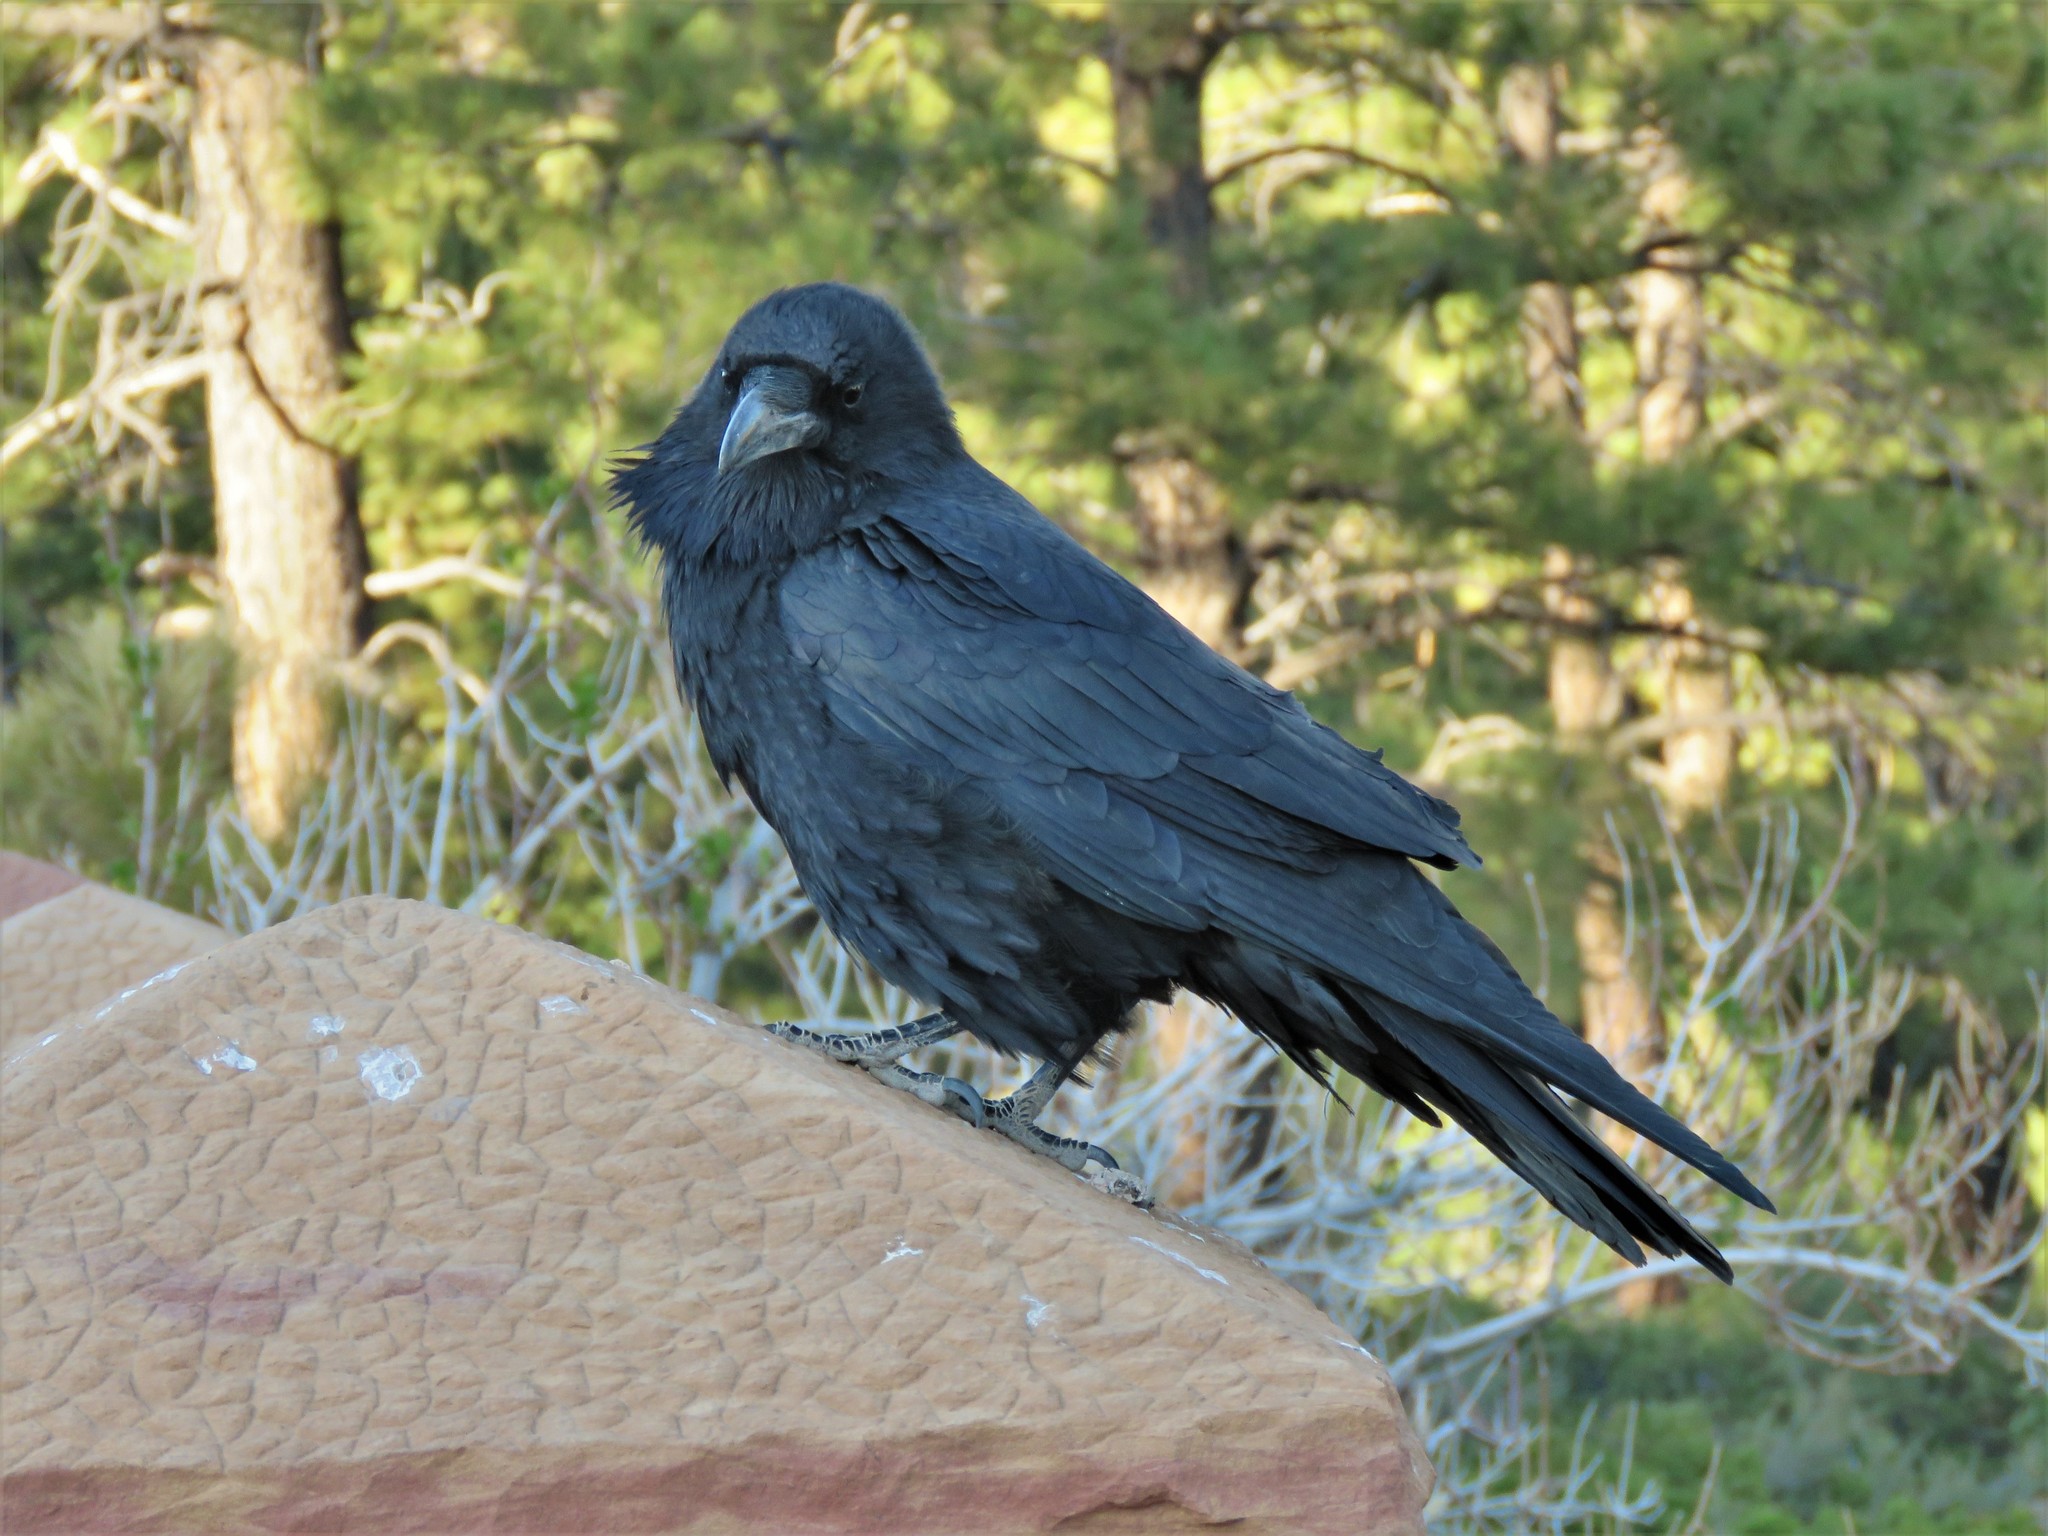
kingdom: Animalia
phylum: Chordata
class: Aves
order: Passeriformes
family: Corvidae
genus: Corvus
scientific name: Corvus corax
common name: Common raven
